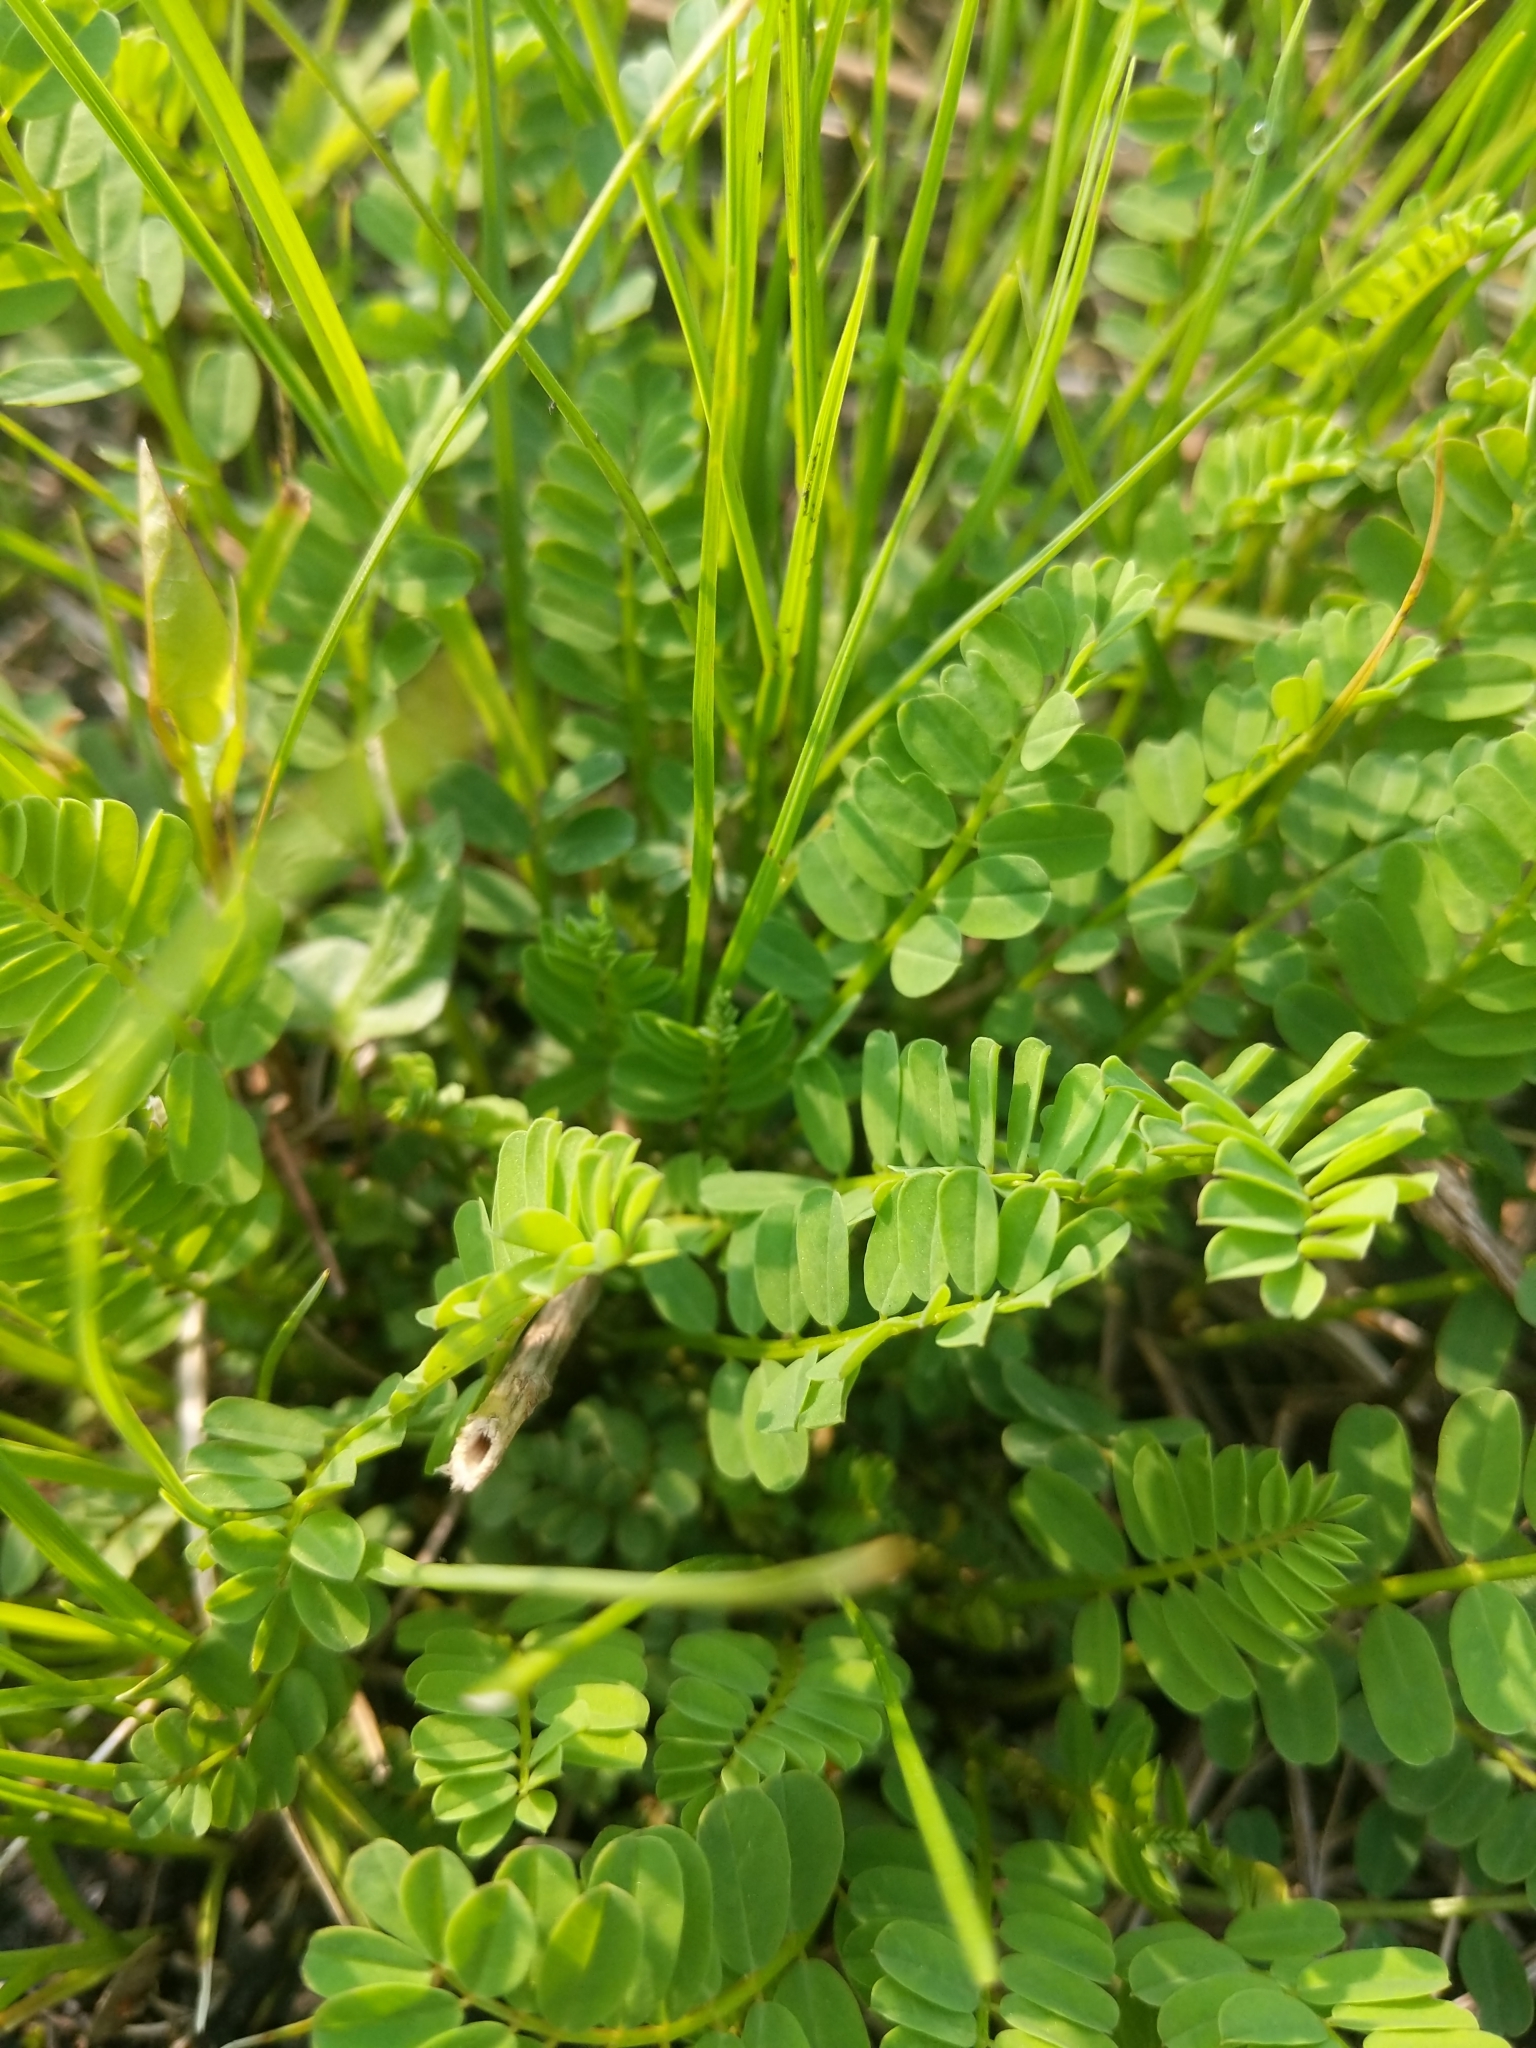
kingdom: Plantae
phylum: Tracheophyta
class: Magnoliopsida
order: Fabales
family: Fabaceae
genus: Coronilla
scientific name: Coronilla varia
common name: Crownvetch
